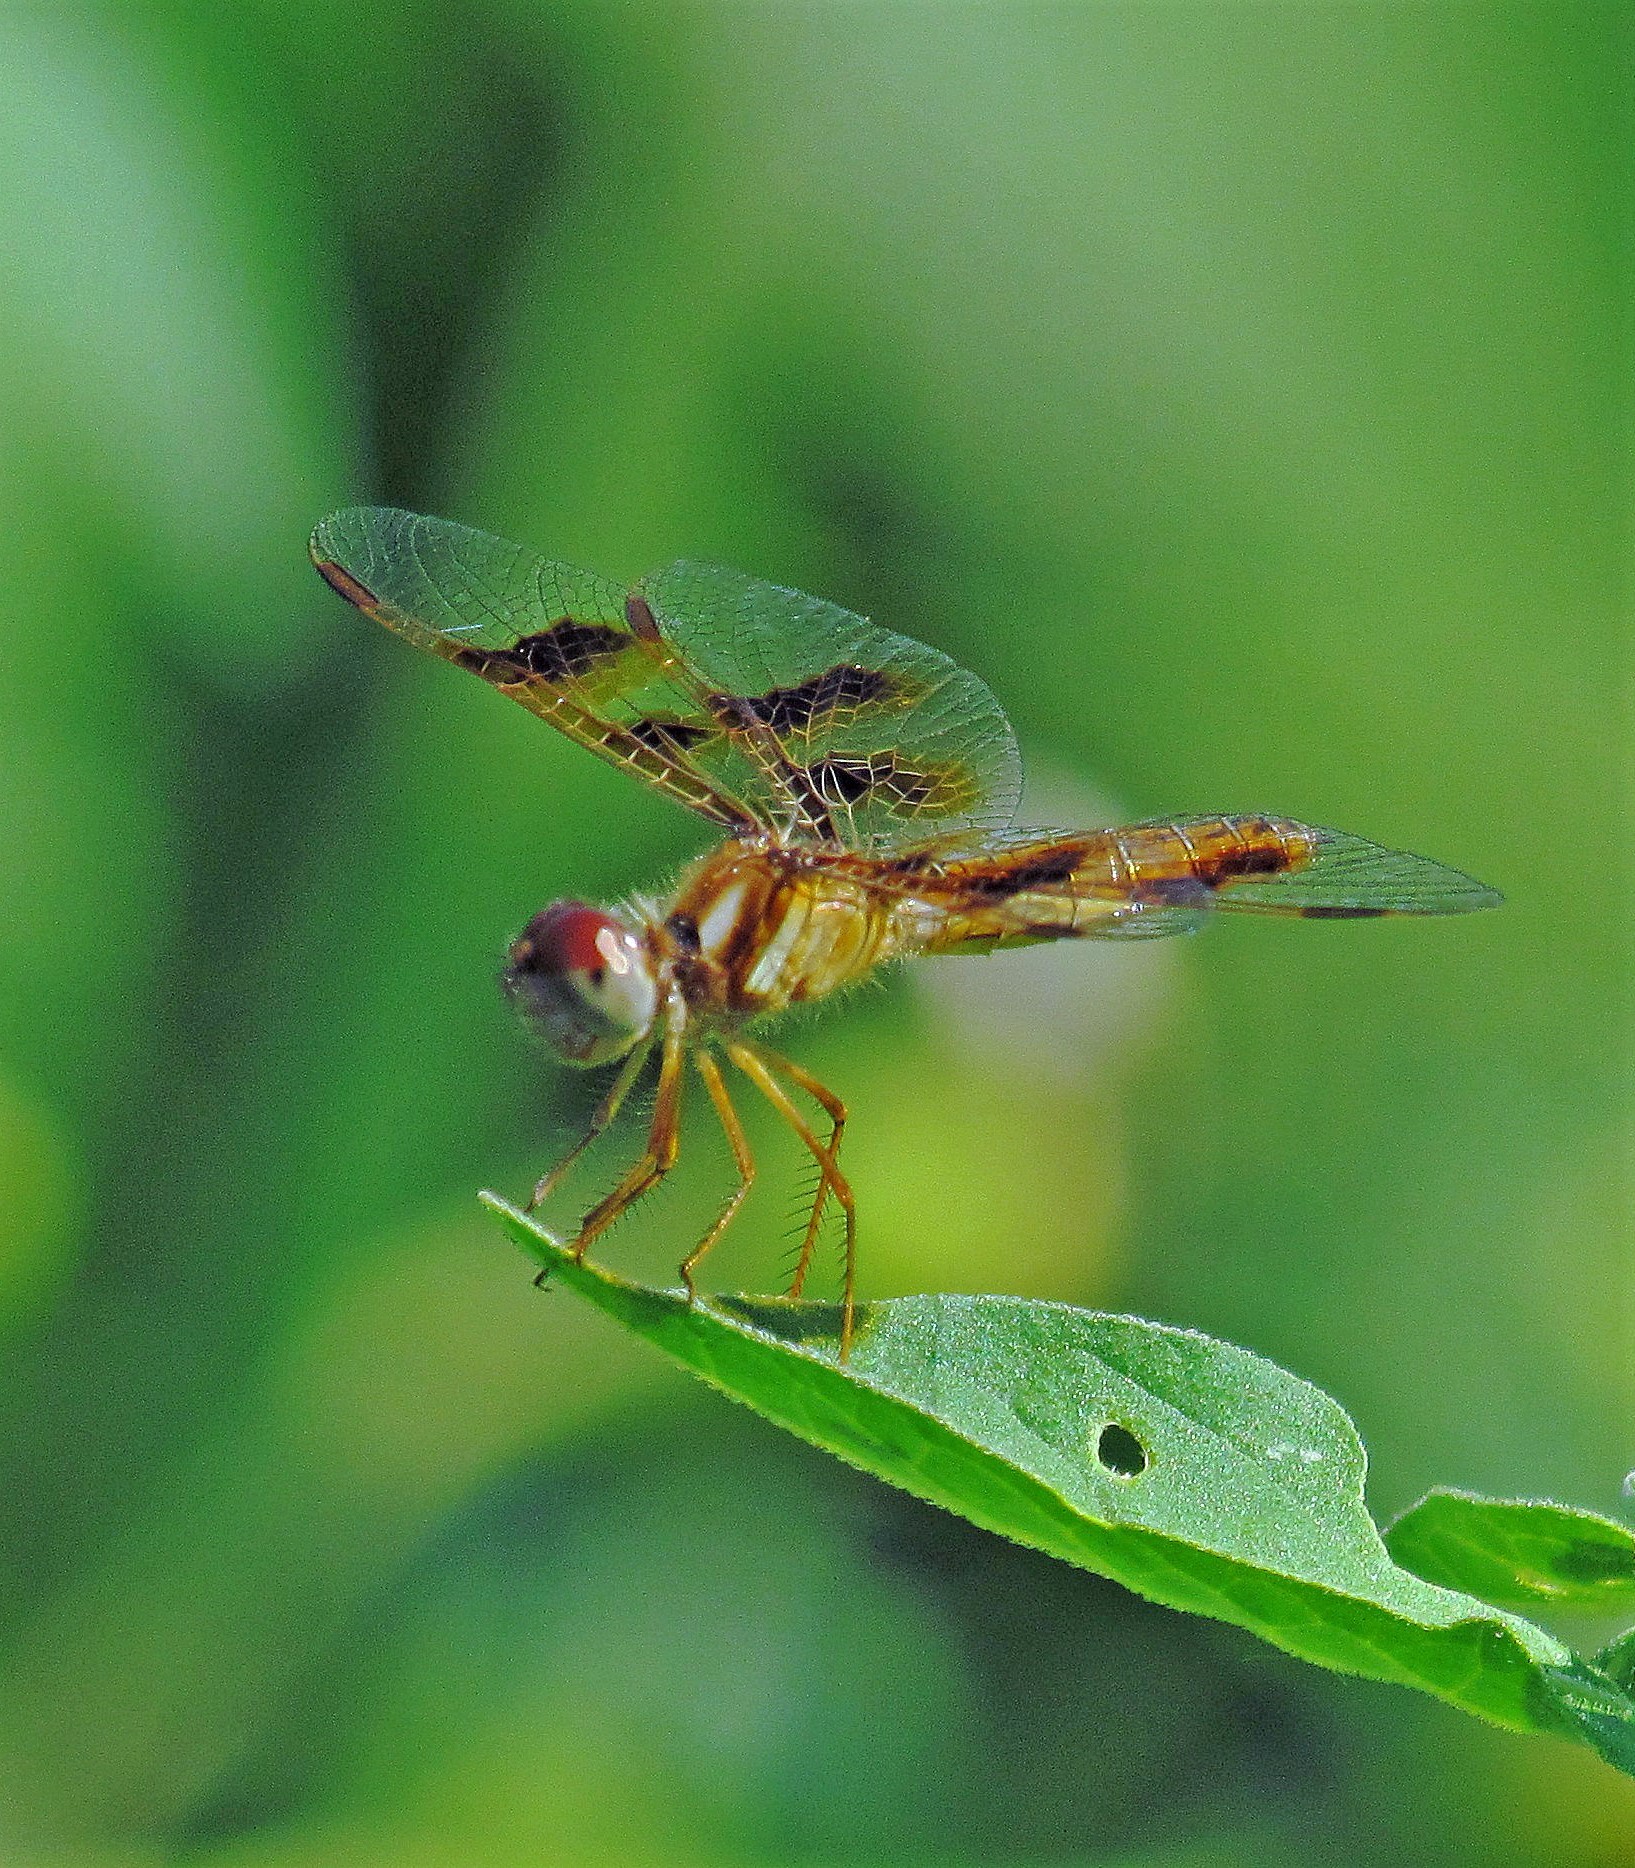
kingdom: Animalia
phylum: Arthropoda
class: Insecta
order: Odonata
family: Libellulidae
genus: Perithemis
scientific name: Perithemis tenera
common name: Eastern amberwing
